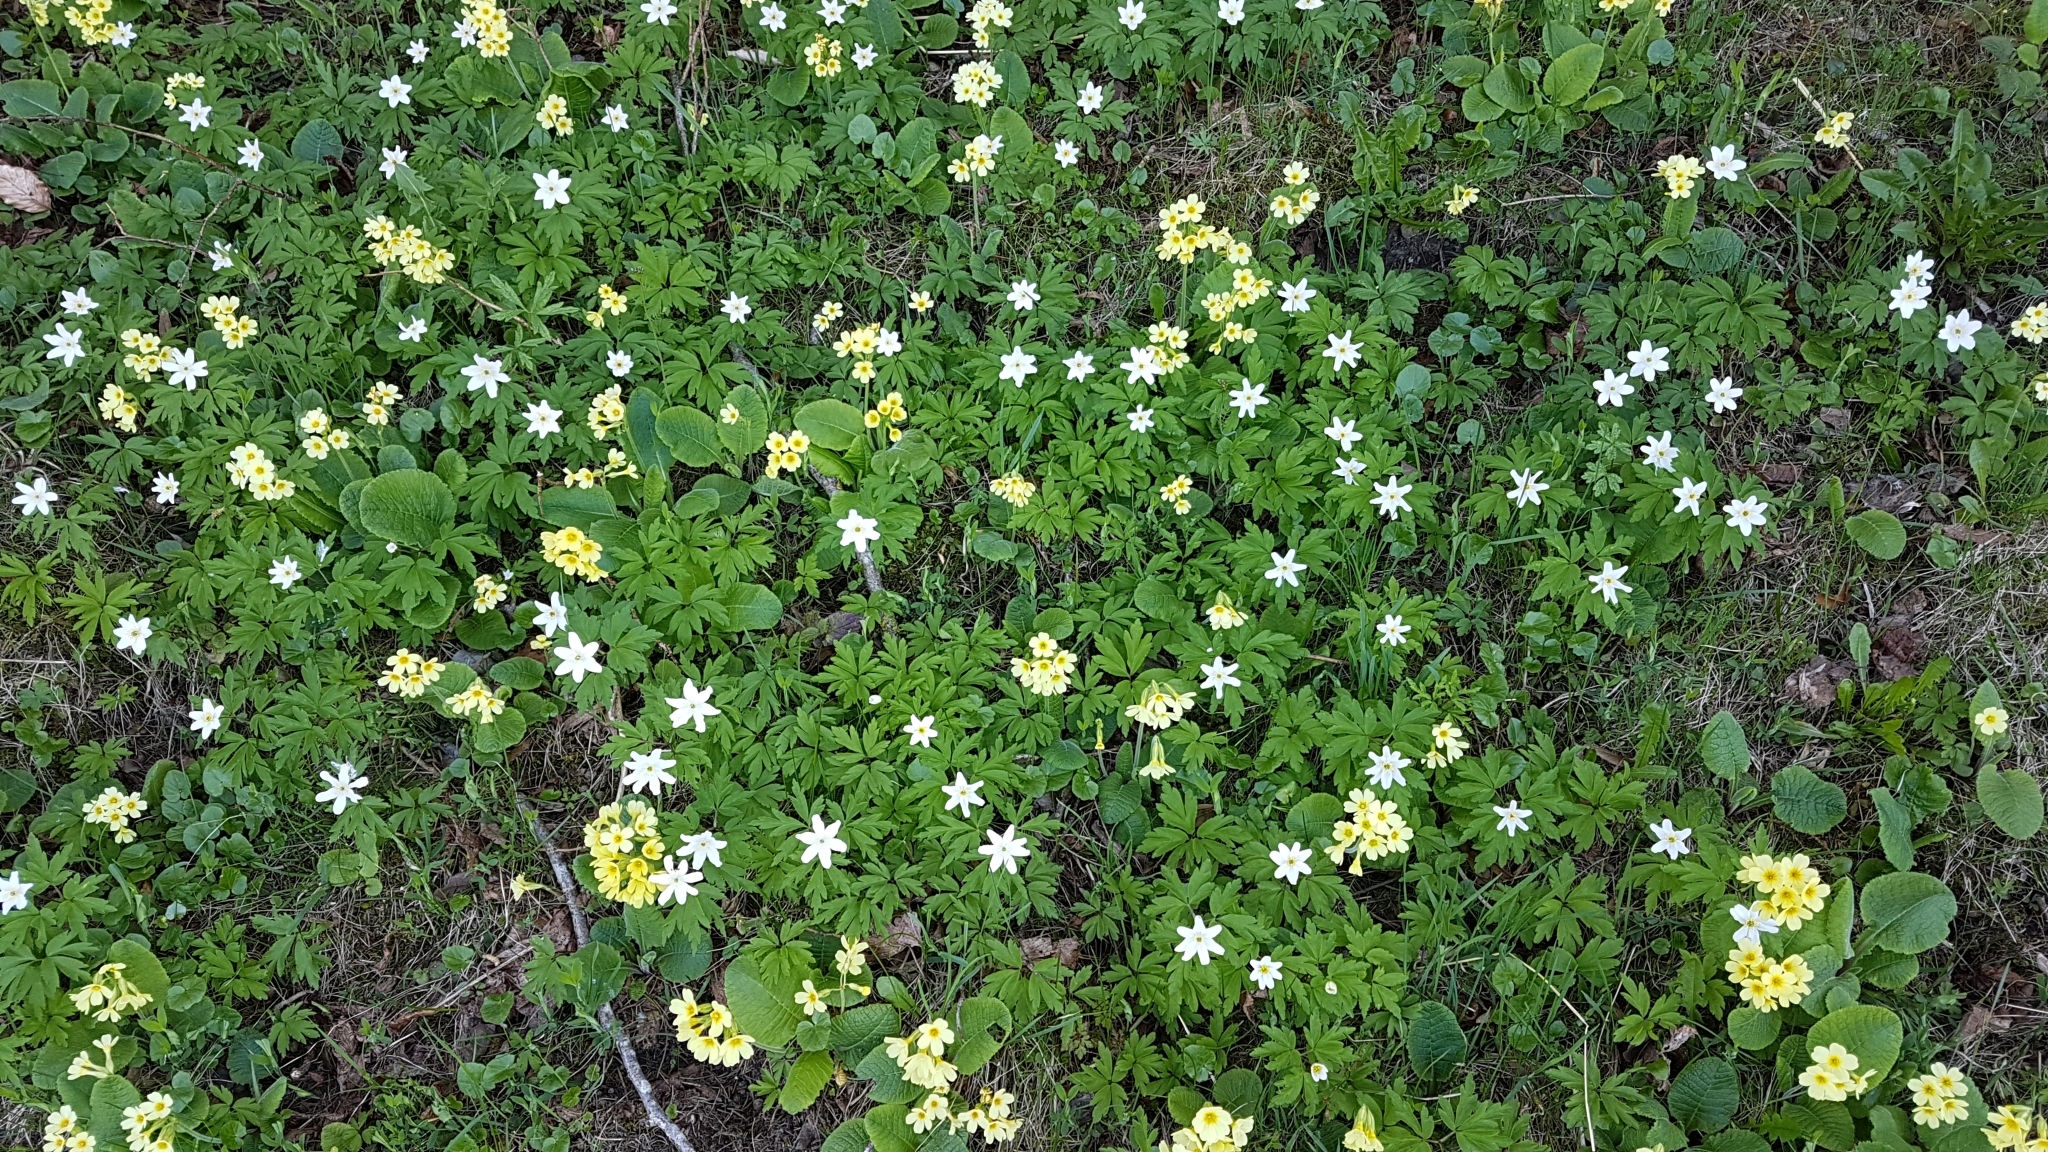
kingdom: Plantae
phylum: Tracheophyta
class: Magnoliopsida
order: Ranunculales
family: Ranunculaceae
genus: Anemone
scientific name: Anemone nemorosa
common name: Wood anemone
